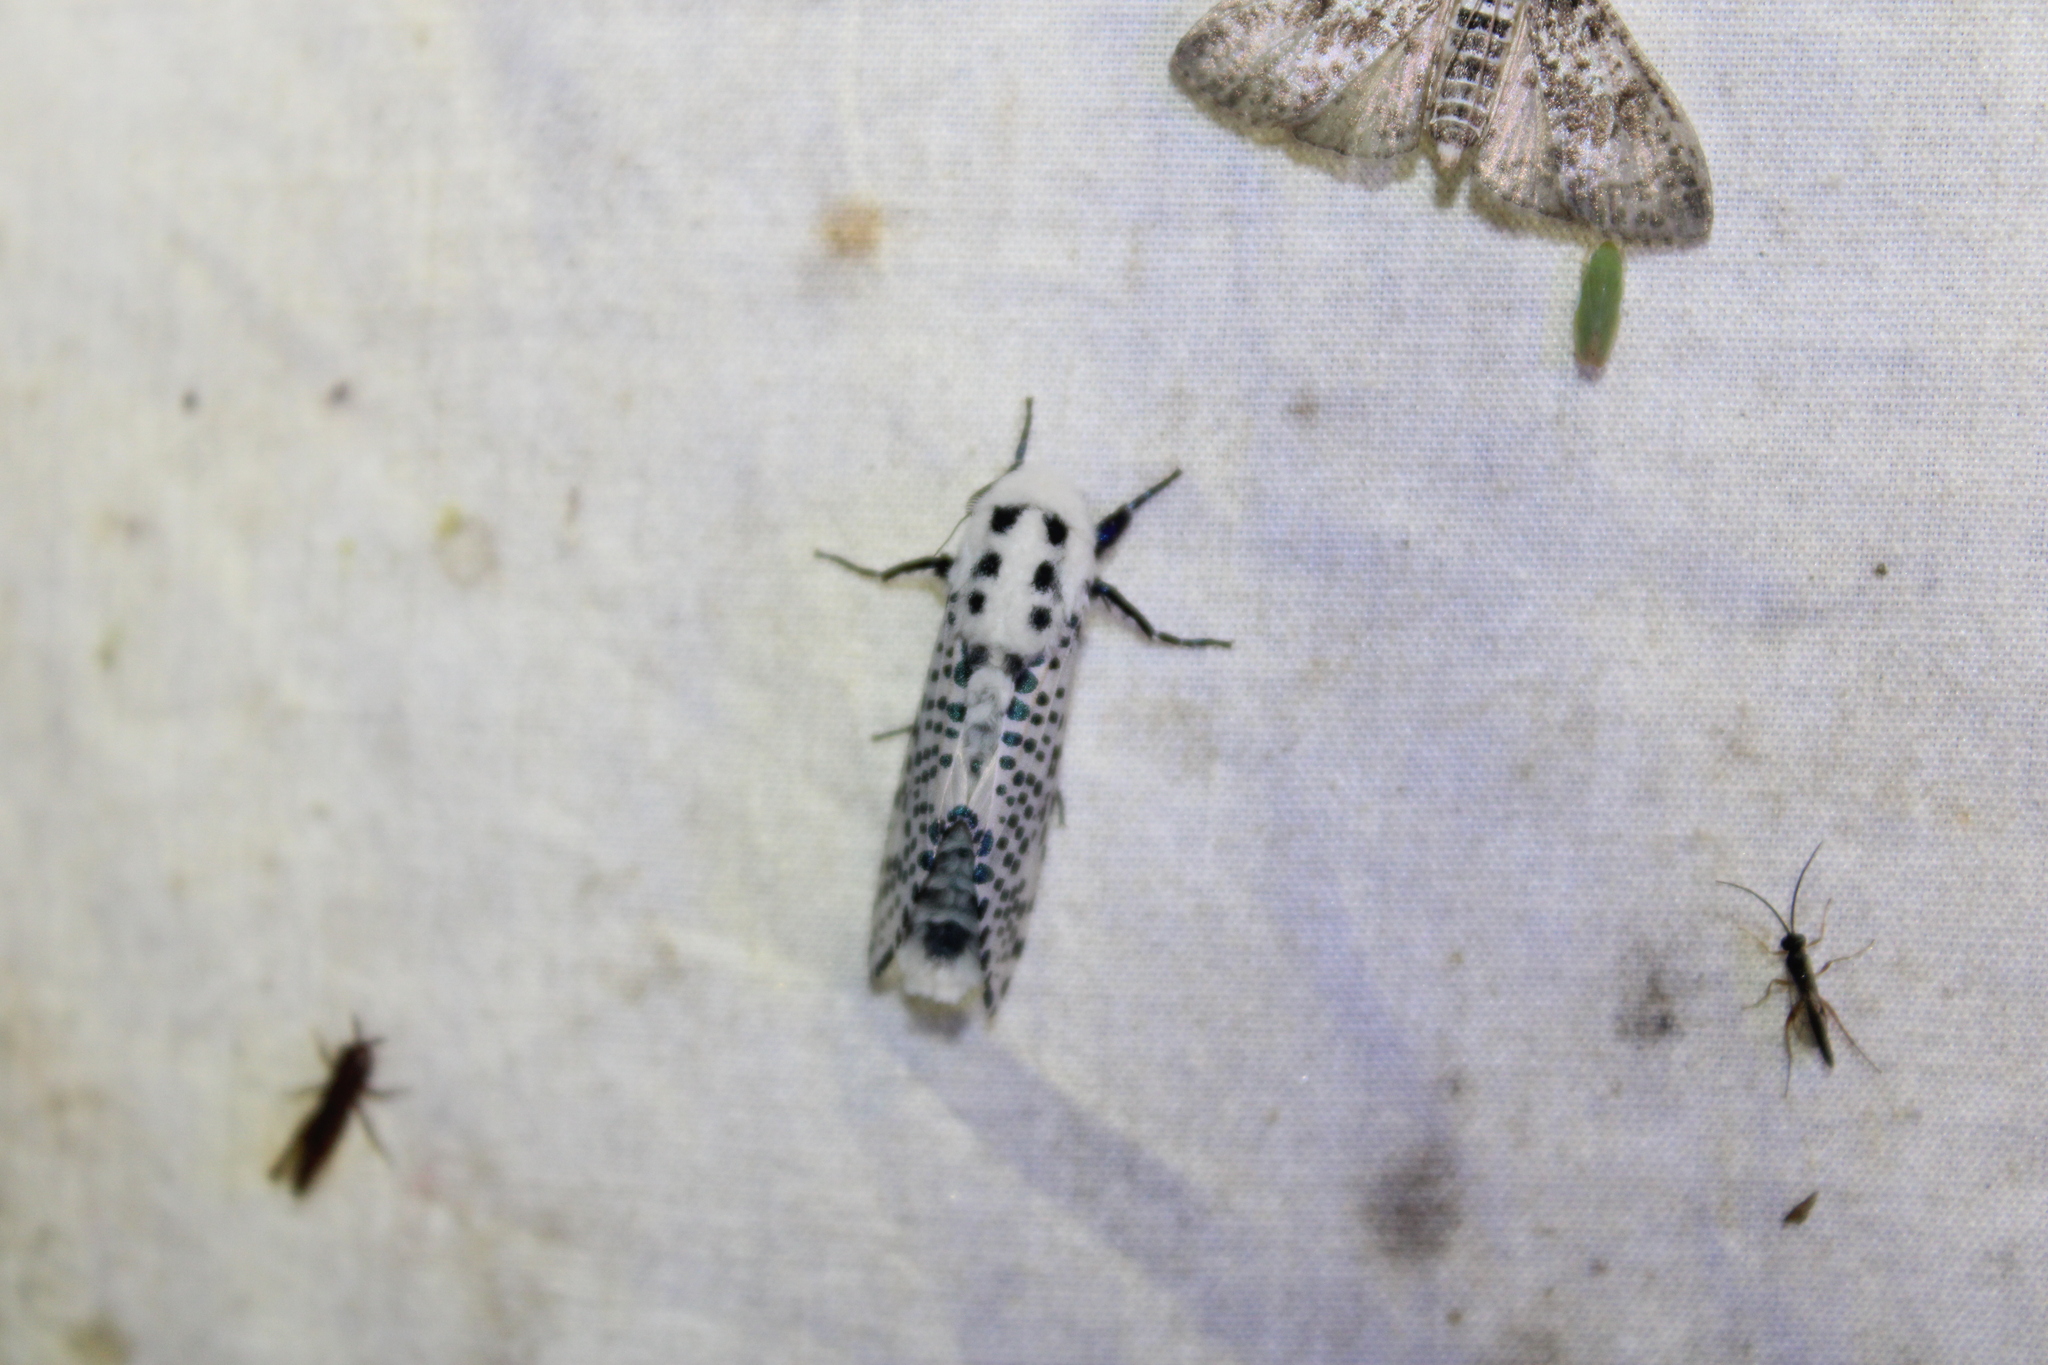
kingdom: Animalia
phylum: Arthropoda
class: Insecta
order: Lepidoptera
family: Cossidae
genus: Zeuzera
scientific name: Zeuzera pyrina
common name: Leopard moth
